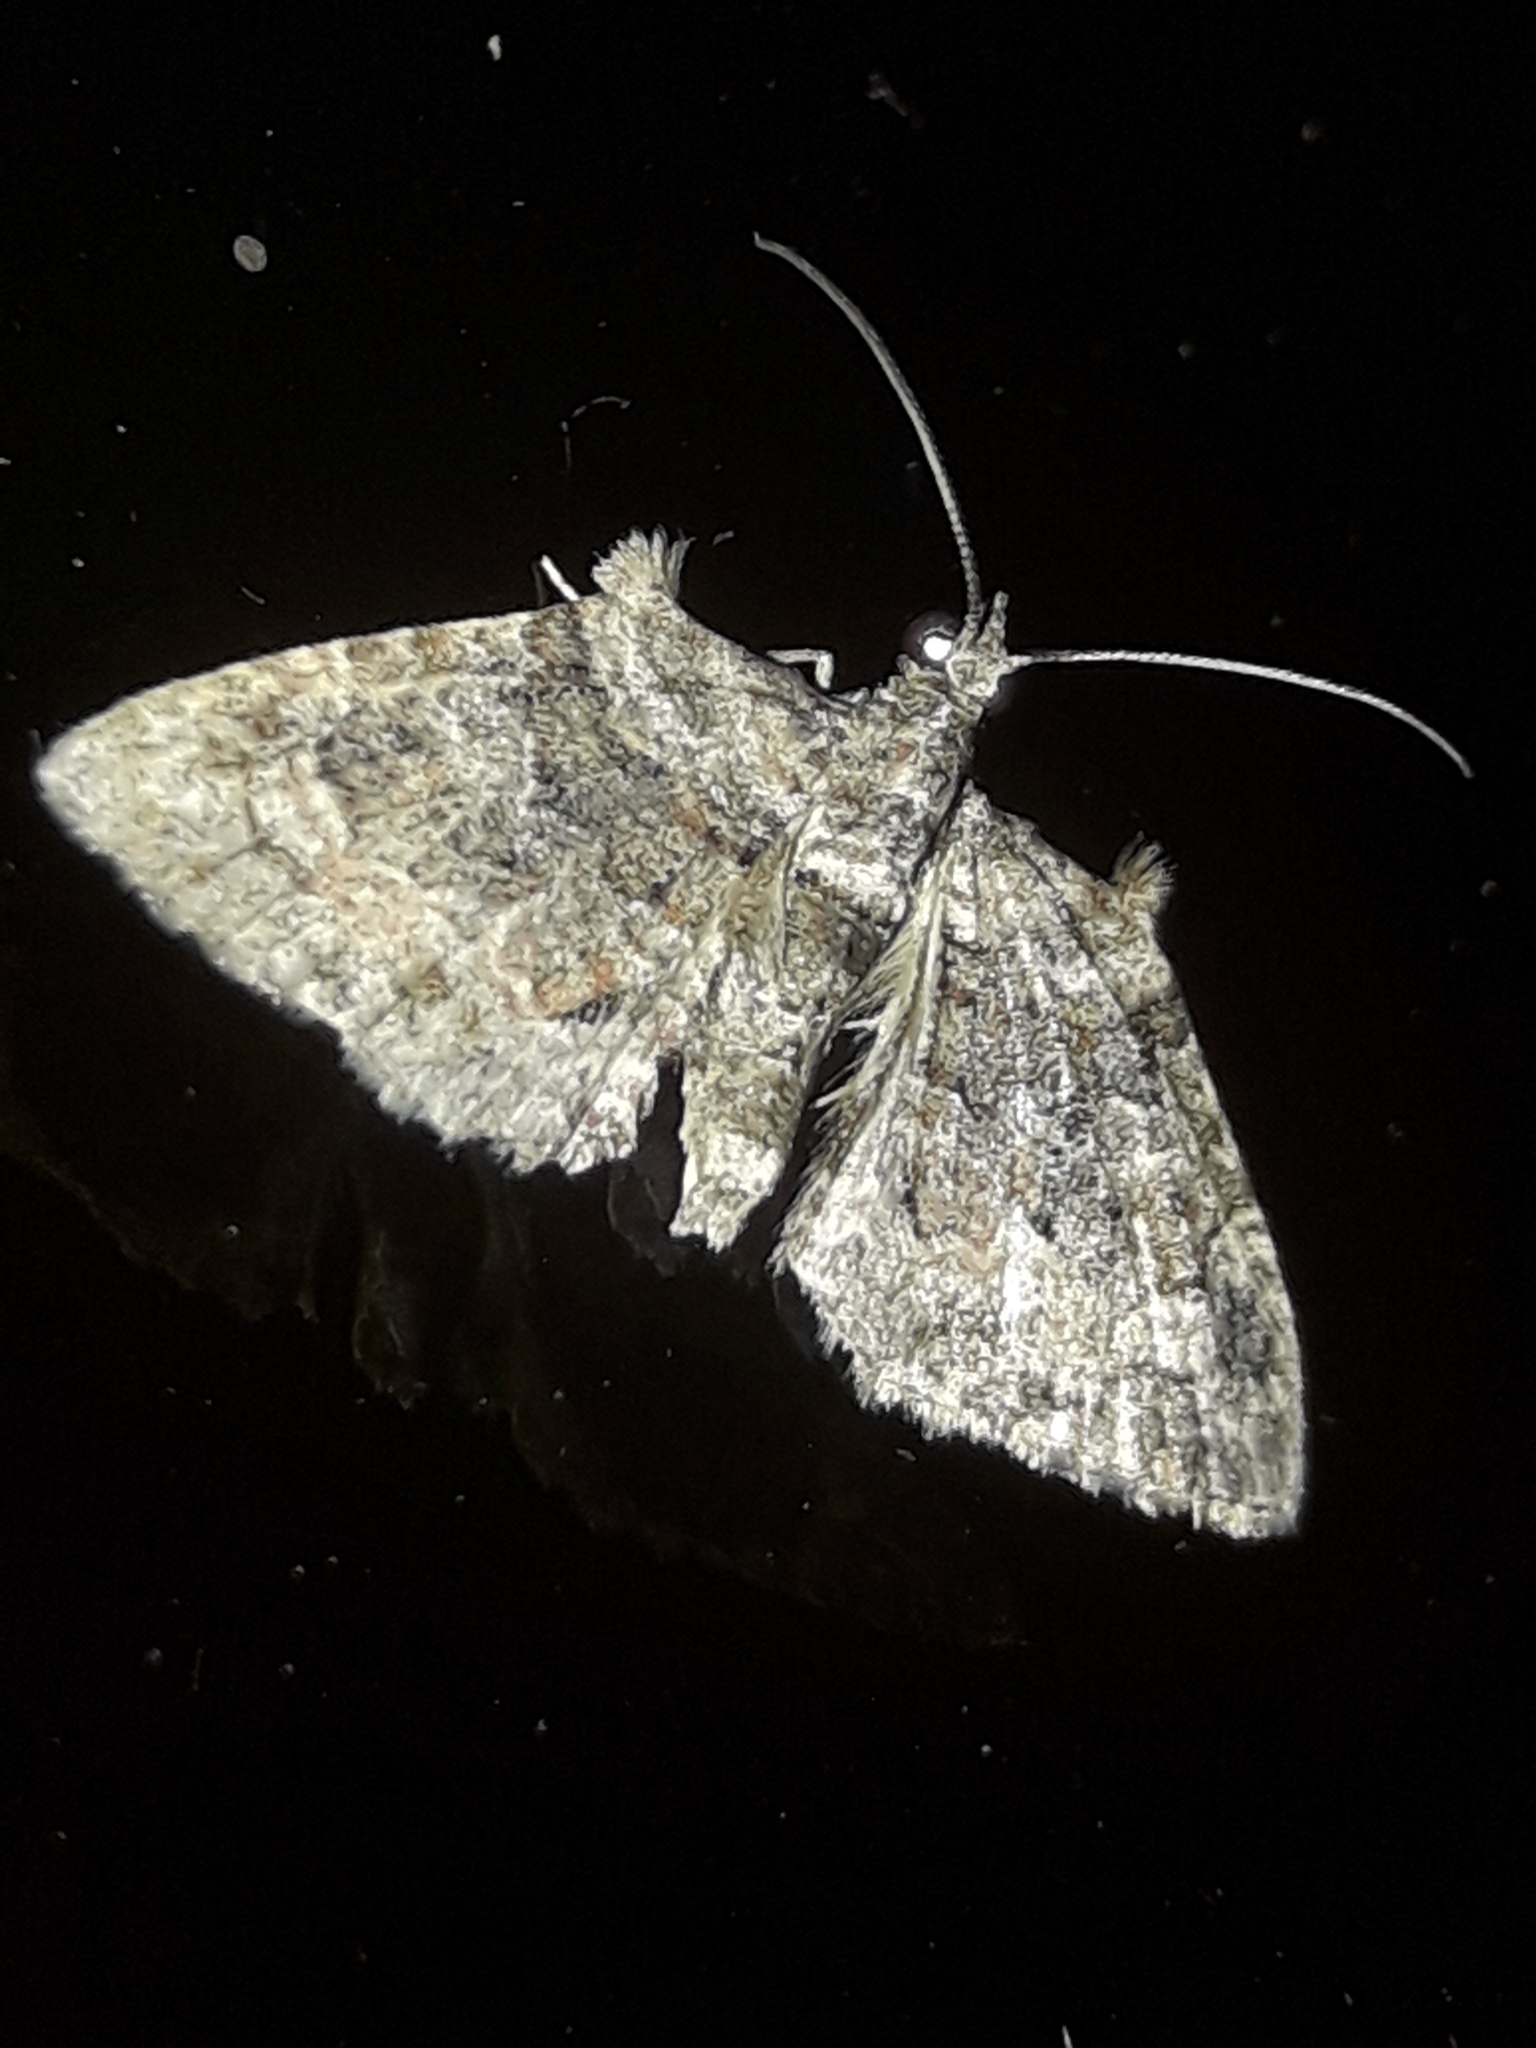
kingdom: Animalia
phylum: Arthropoda
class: Insecta
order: Lepidoptera
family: Geometridae
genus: Phrissogonus
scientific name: Phrissogonus laticostata
